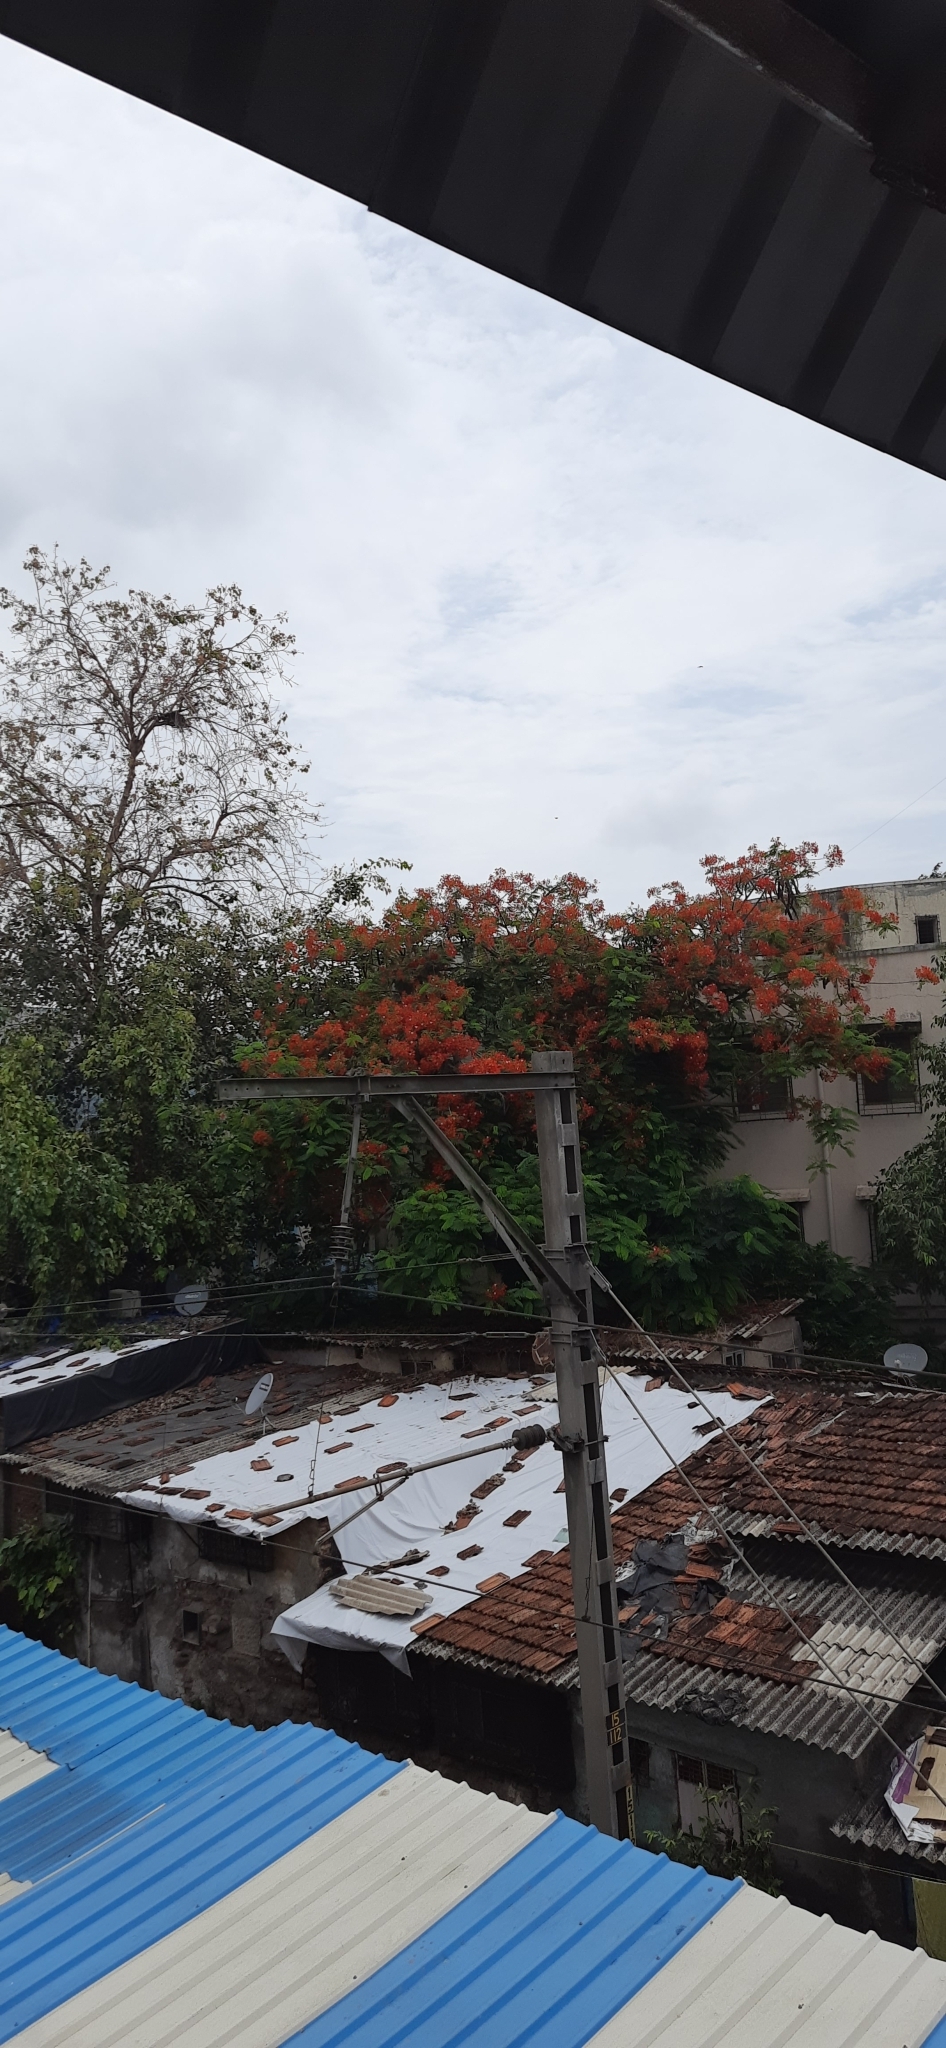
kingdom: Plantae
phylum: Tracheophyta
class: Magnoliopsida
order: Fabales
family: Fabaceae
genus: Delonix
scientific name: Delonix regia
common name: Royal poinciana
